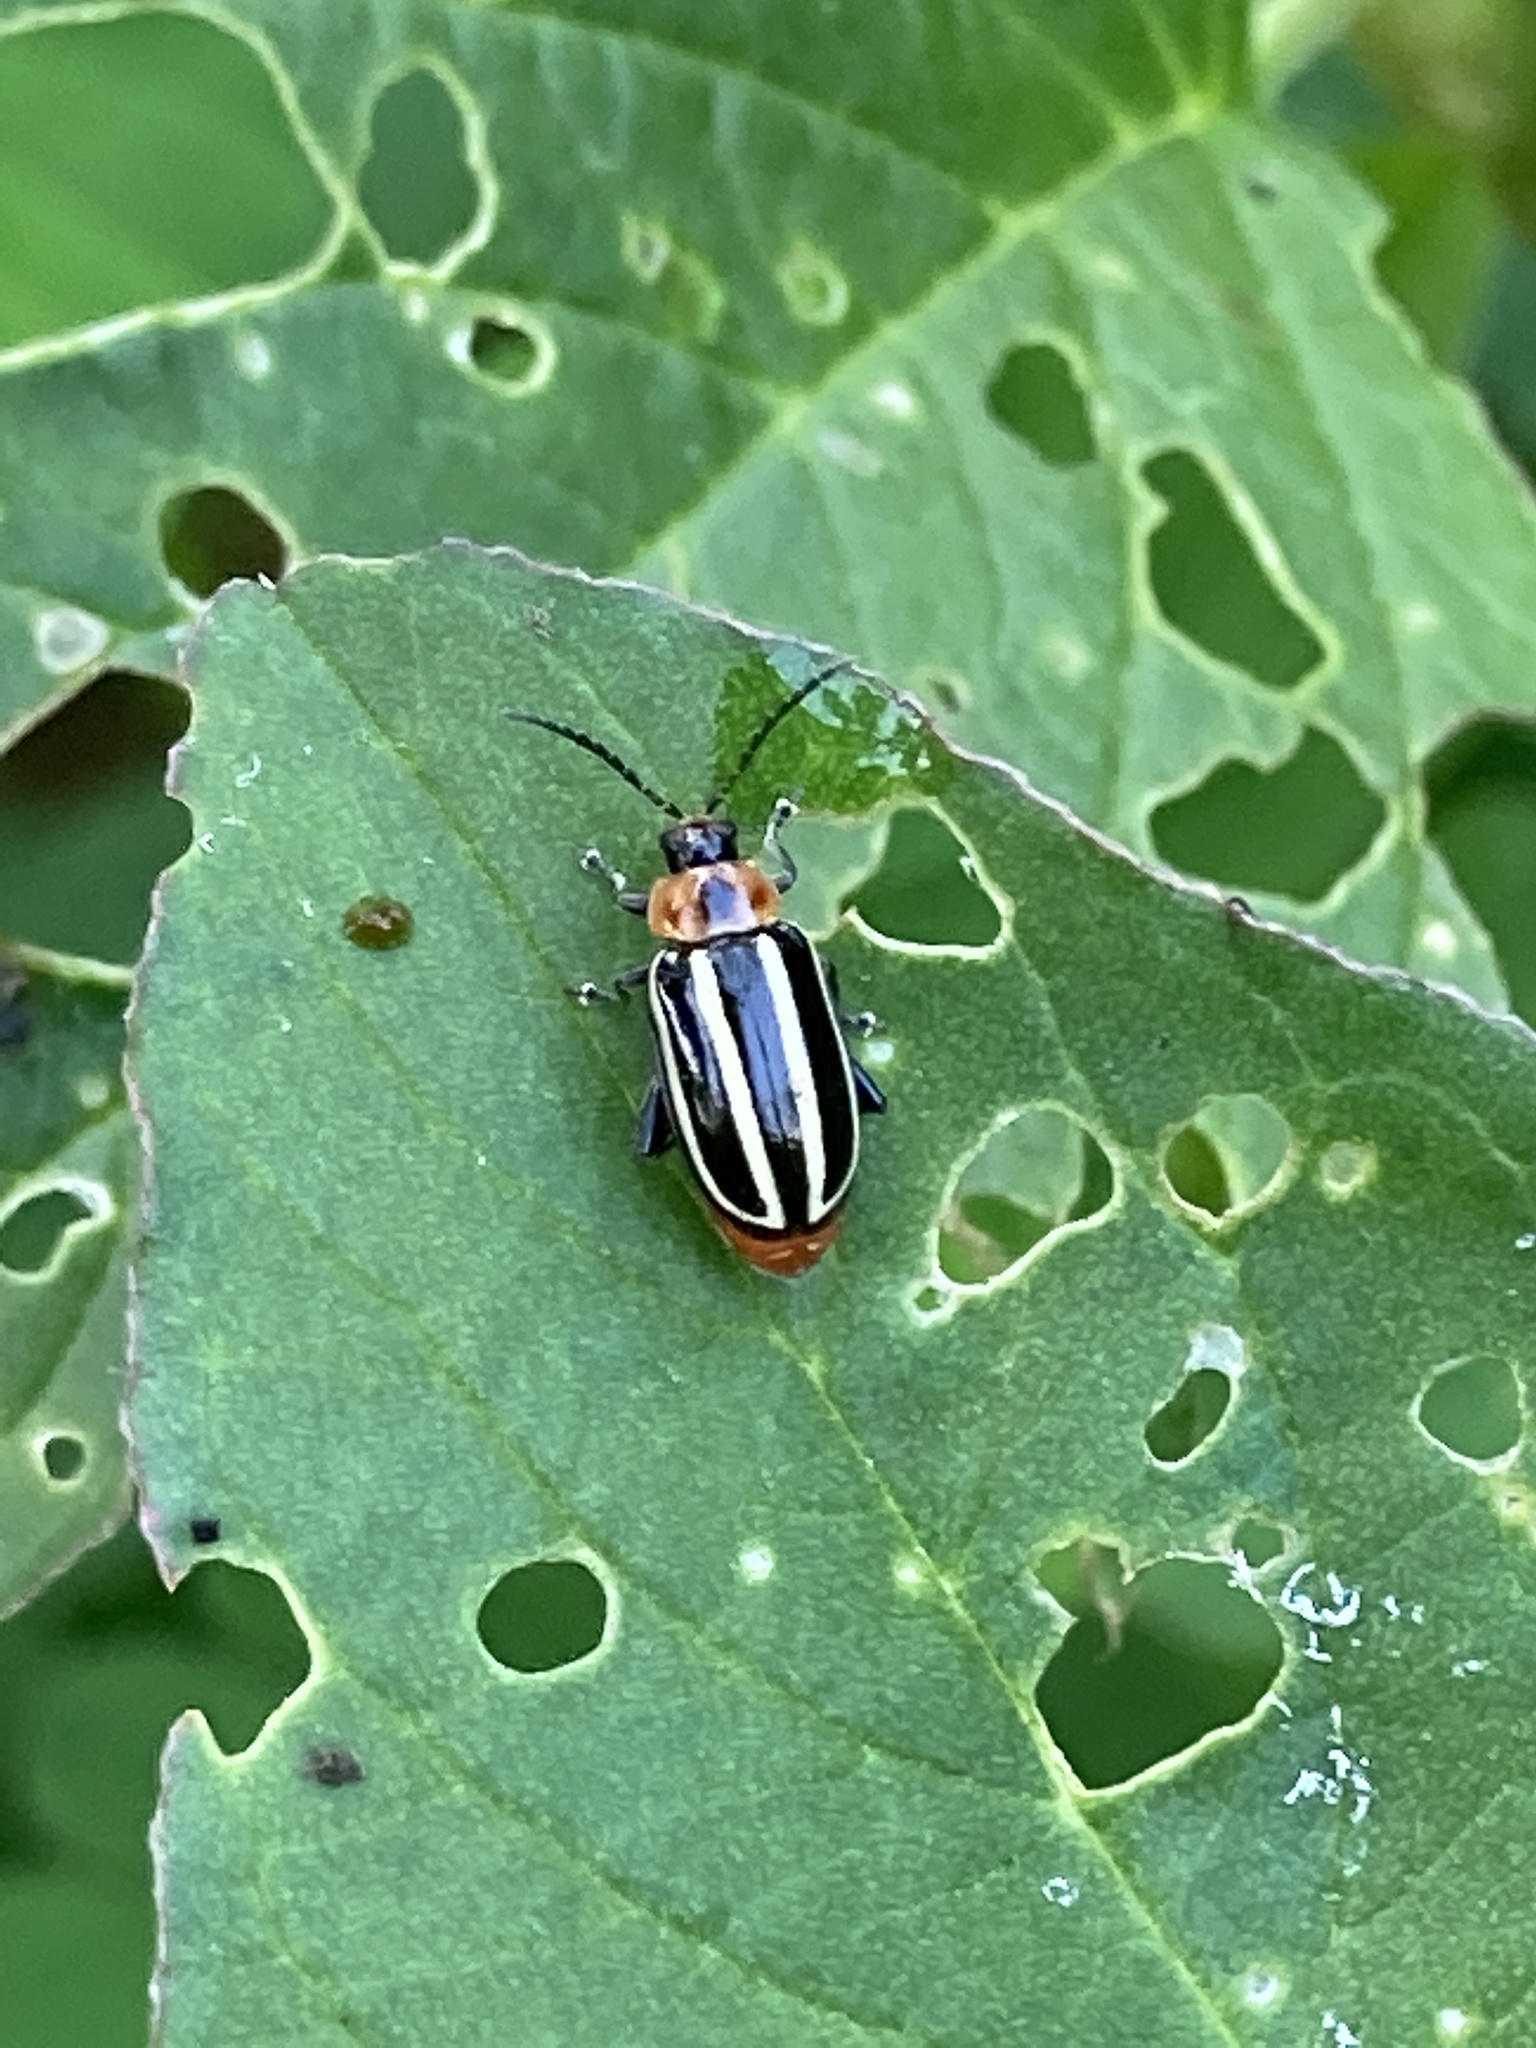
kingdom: Animalia
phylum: Arthropoda
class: Insecta
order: Coleoptera
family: Chrysomelidae
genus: Disonycha
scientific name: Disonycha glabrata
